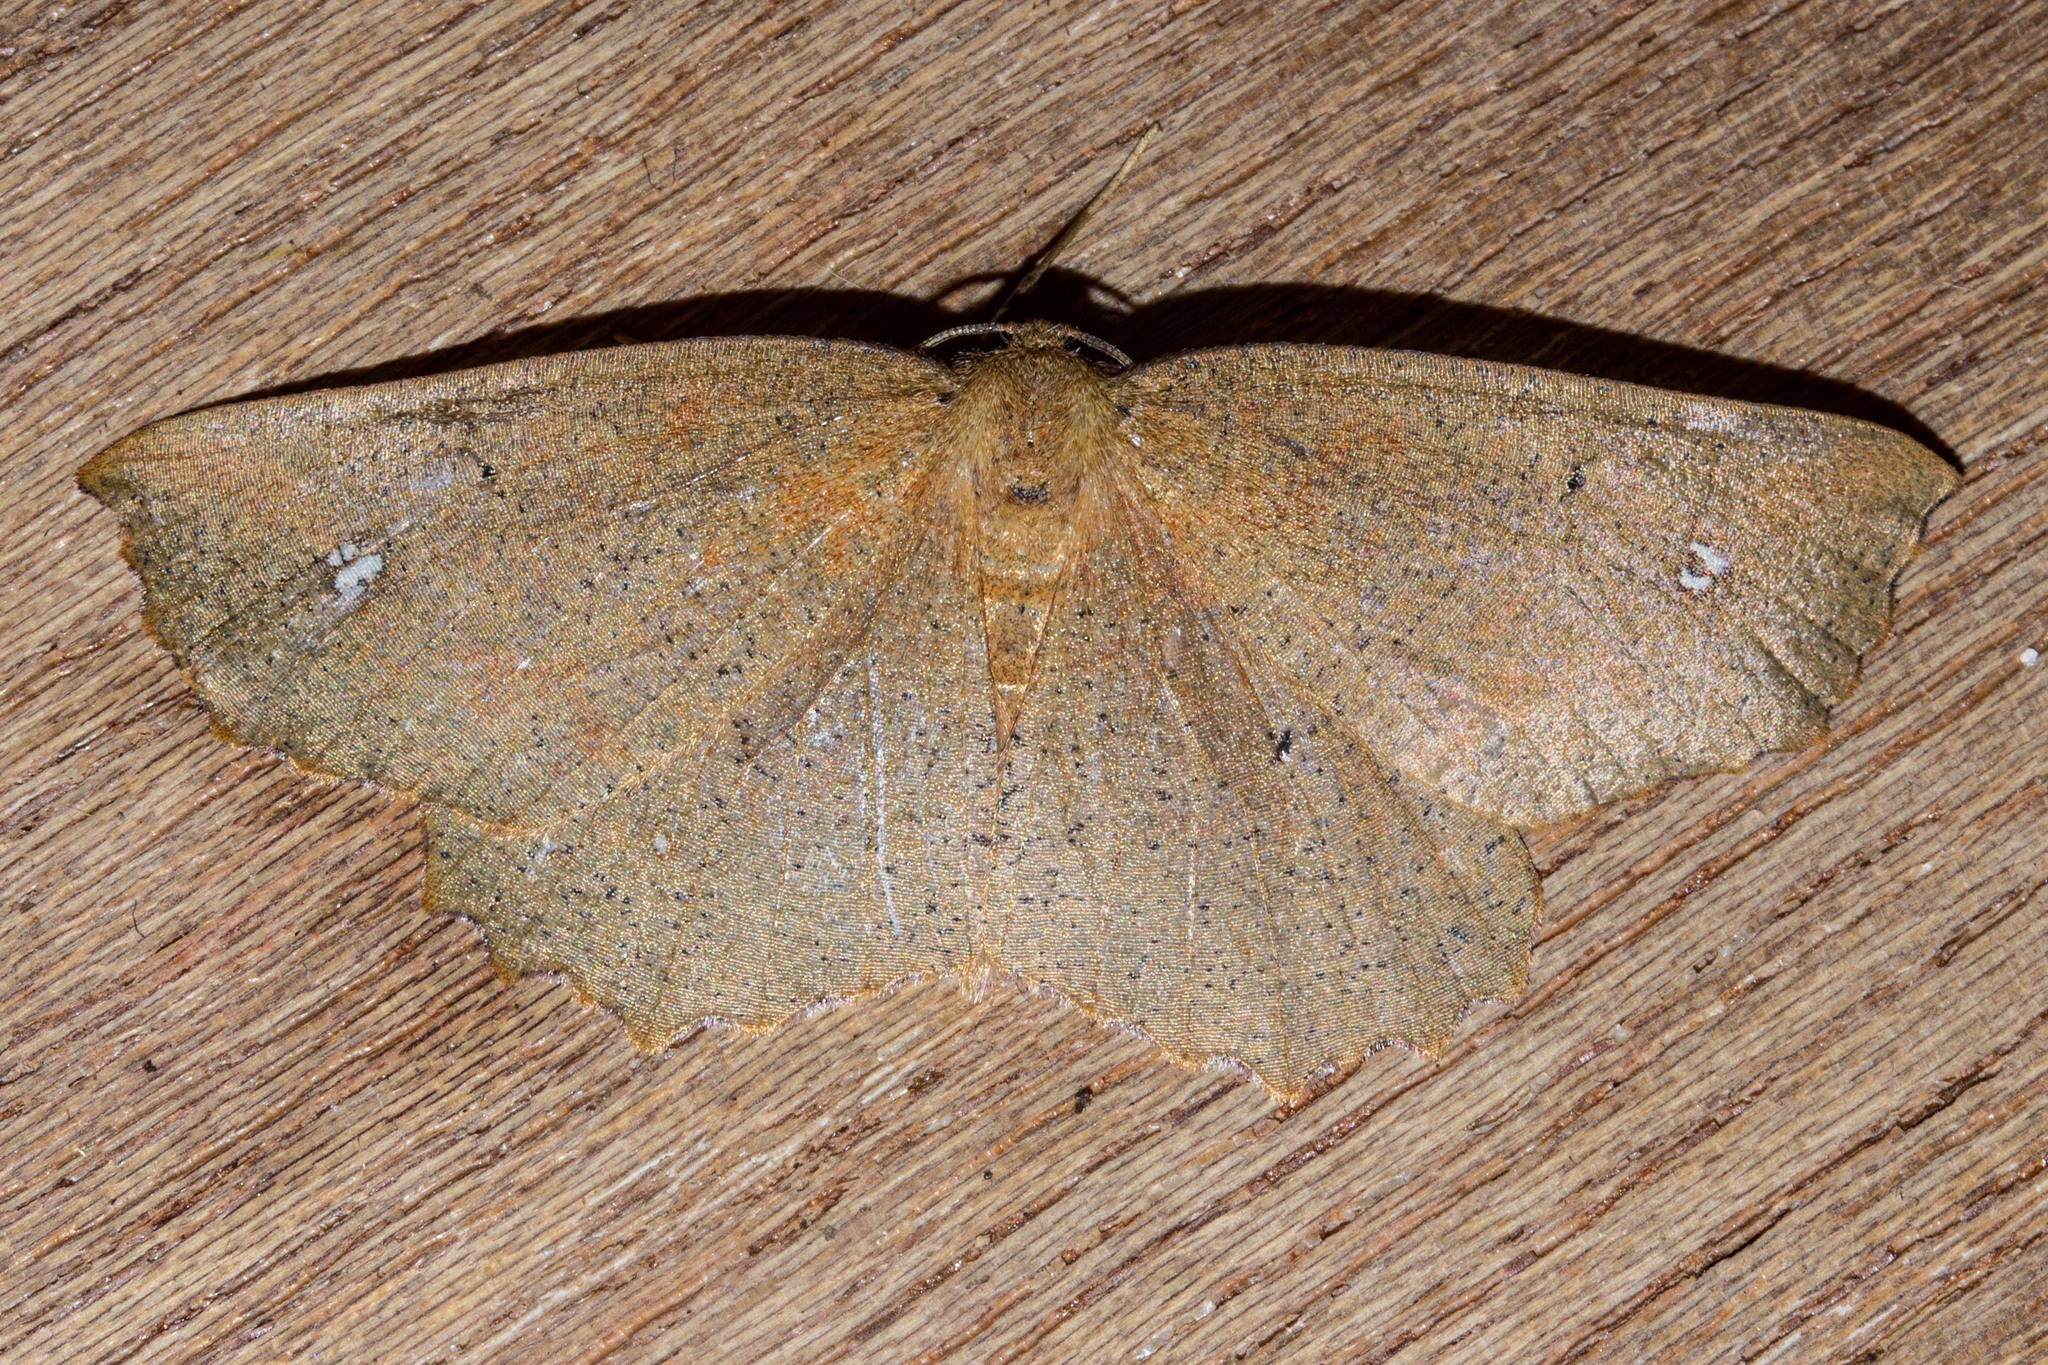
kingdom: Animalia
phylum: Arthropoda
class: Insecta
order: Lepidoptera
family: Geometridae
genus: Xyridacma
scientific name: Xyridacma ustaria
